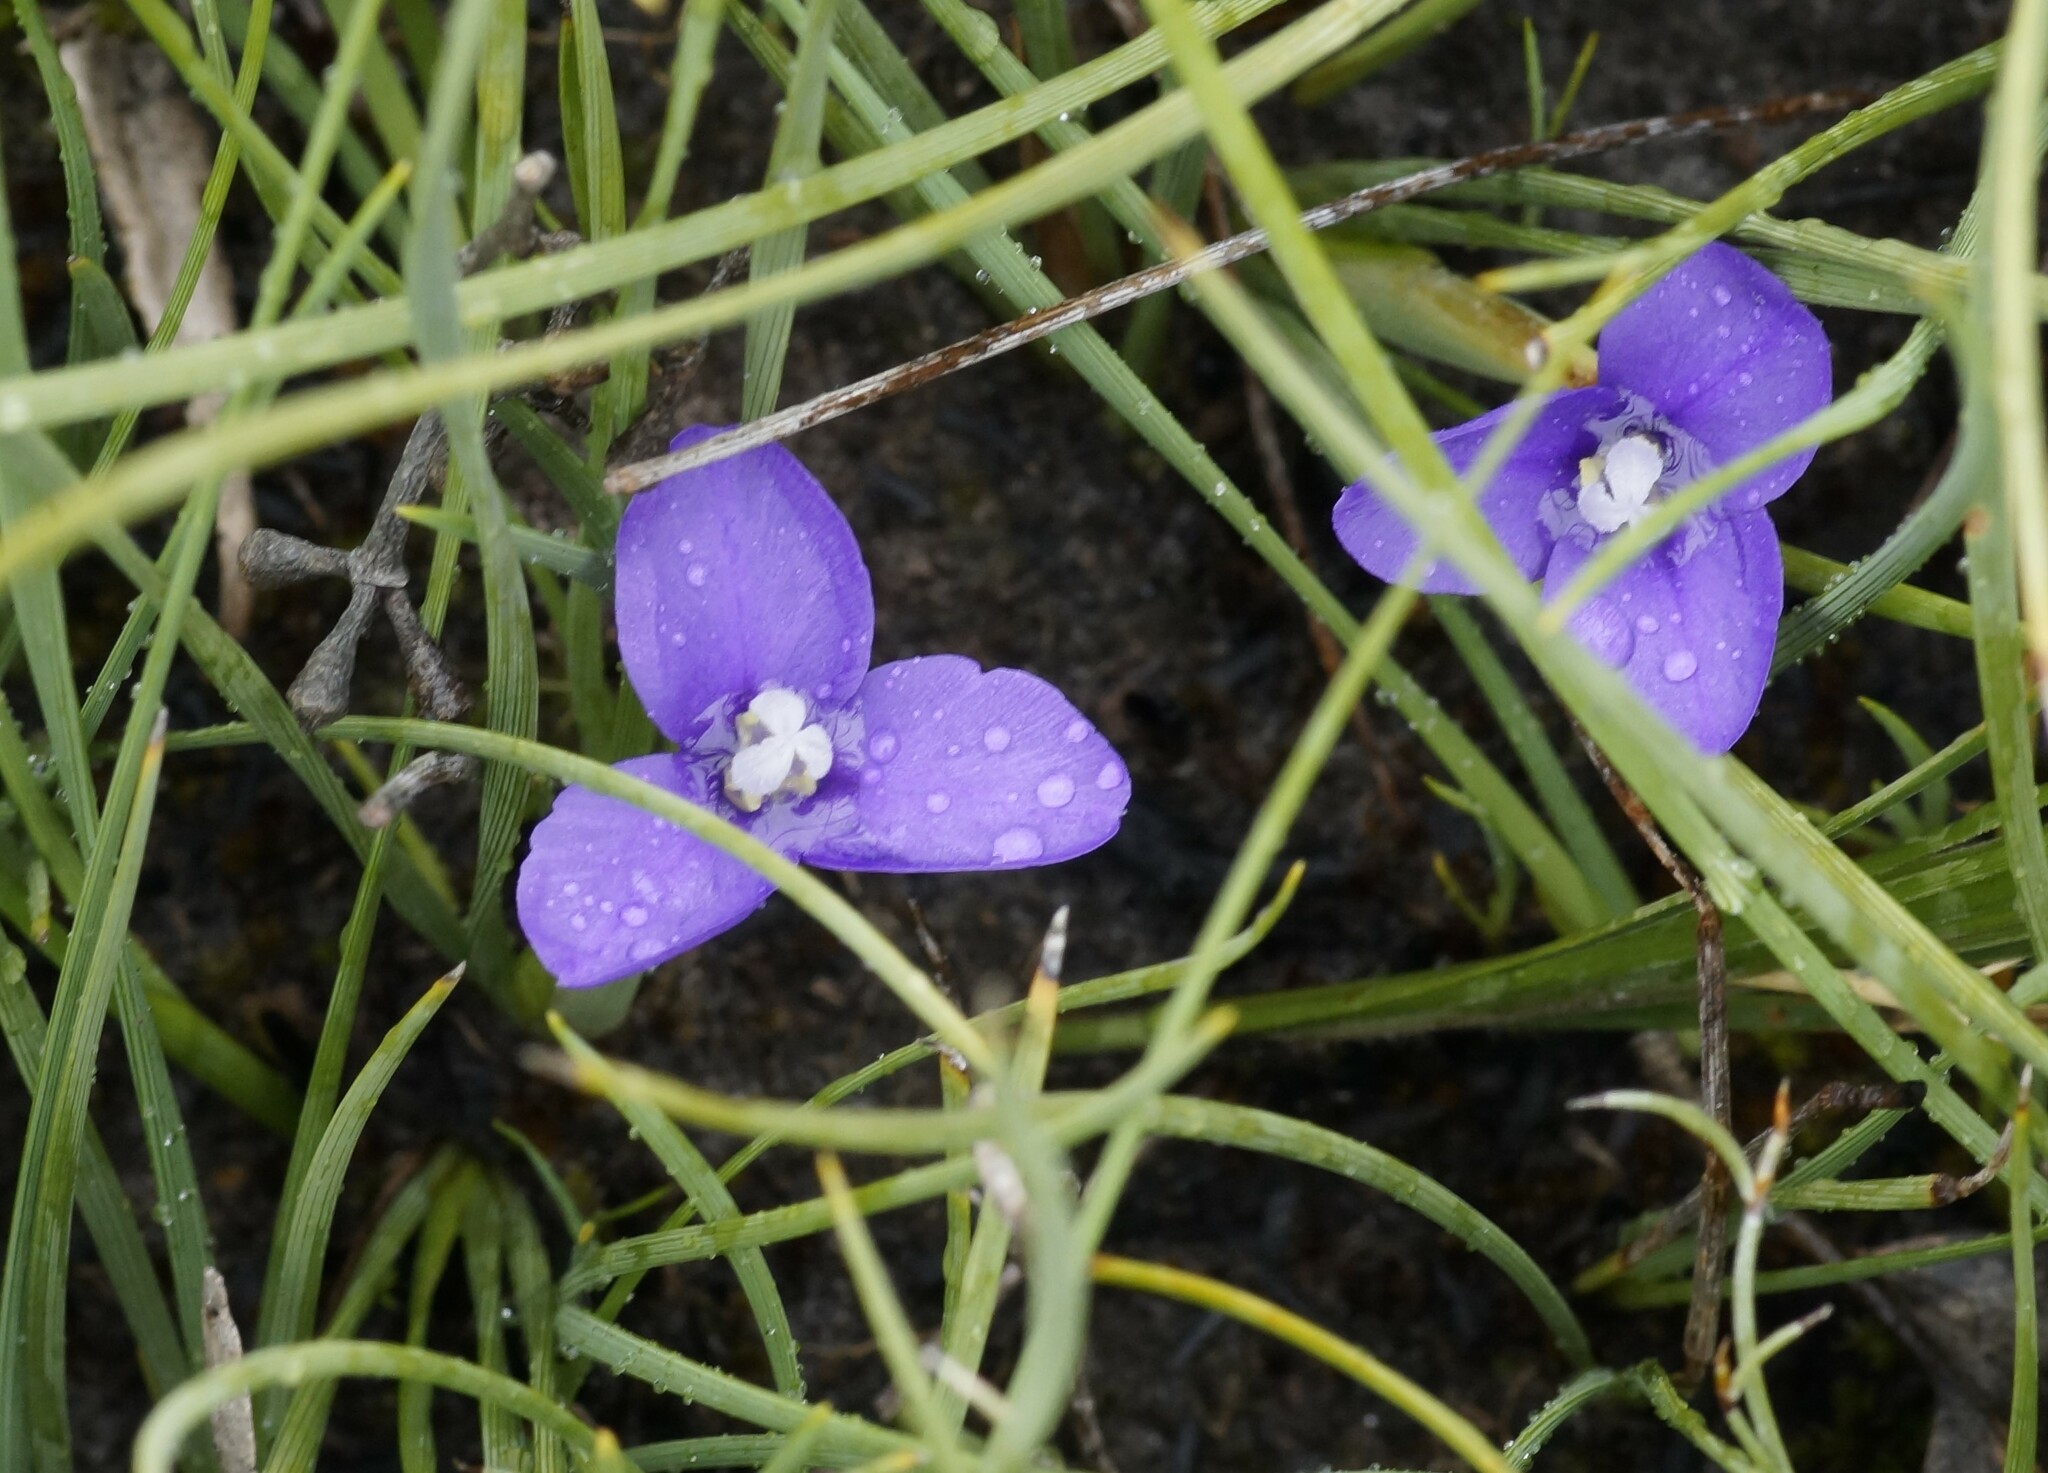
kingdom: Plantae
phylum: Tracheophyta
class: Liliopsida
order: Asparagales
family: Iridaceae
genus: Patersonia
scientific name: Patersonia fragilis
